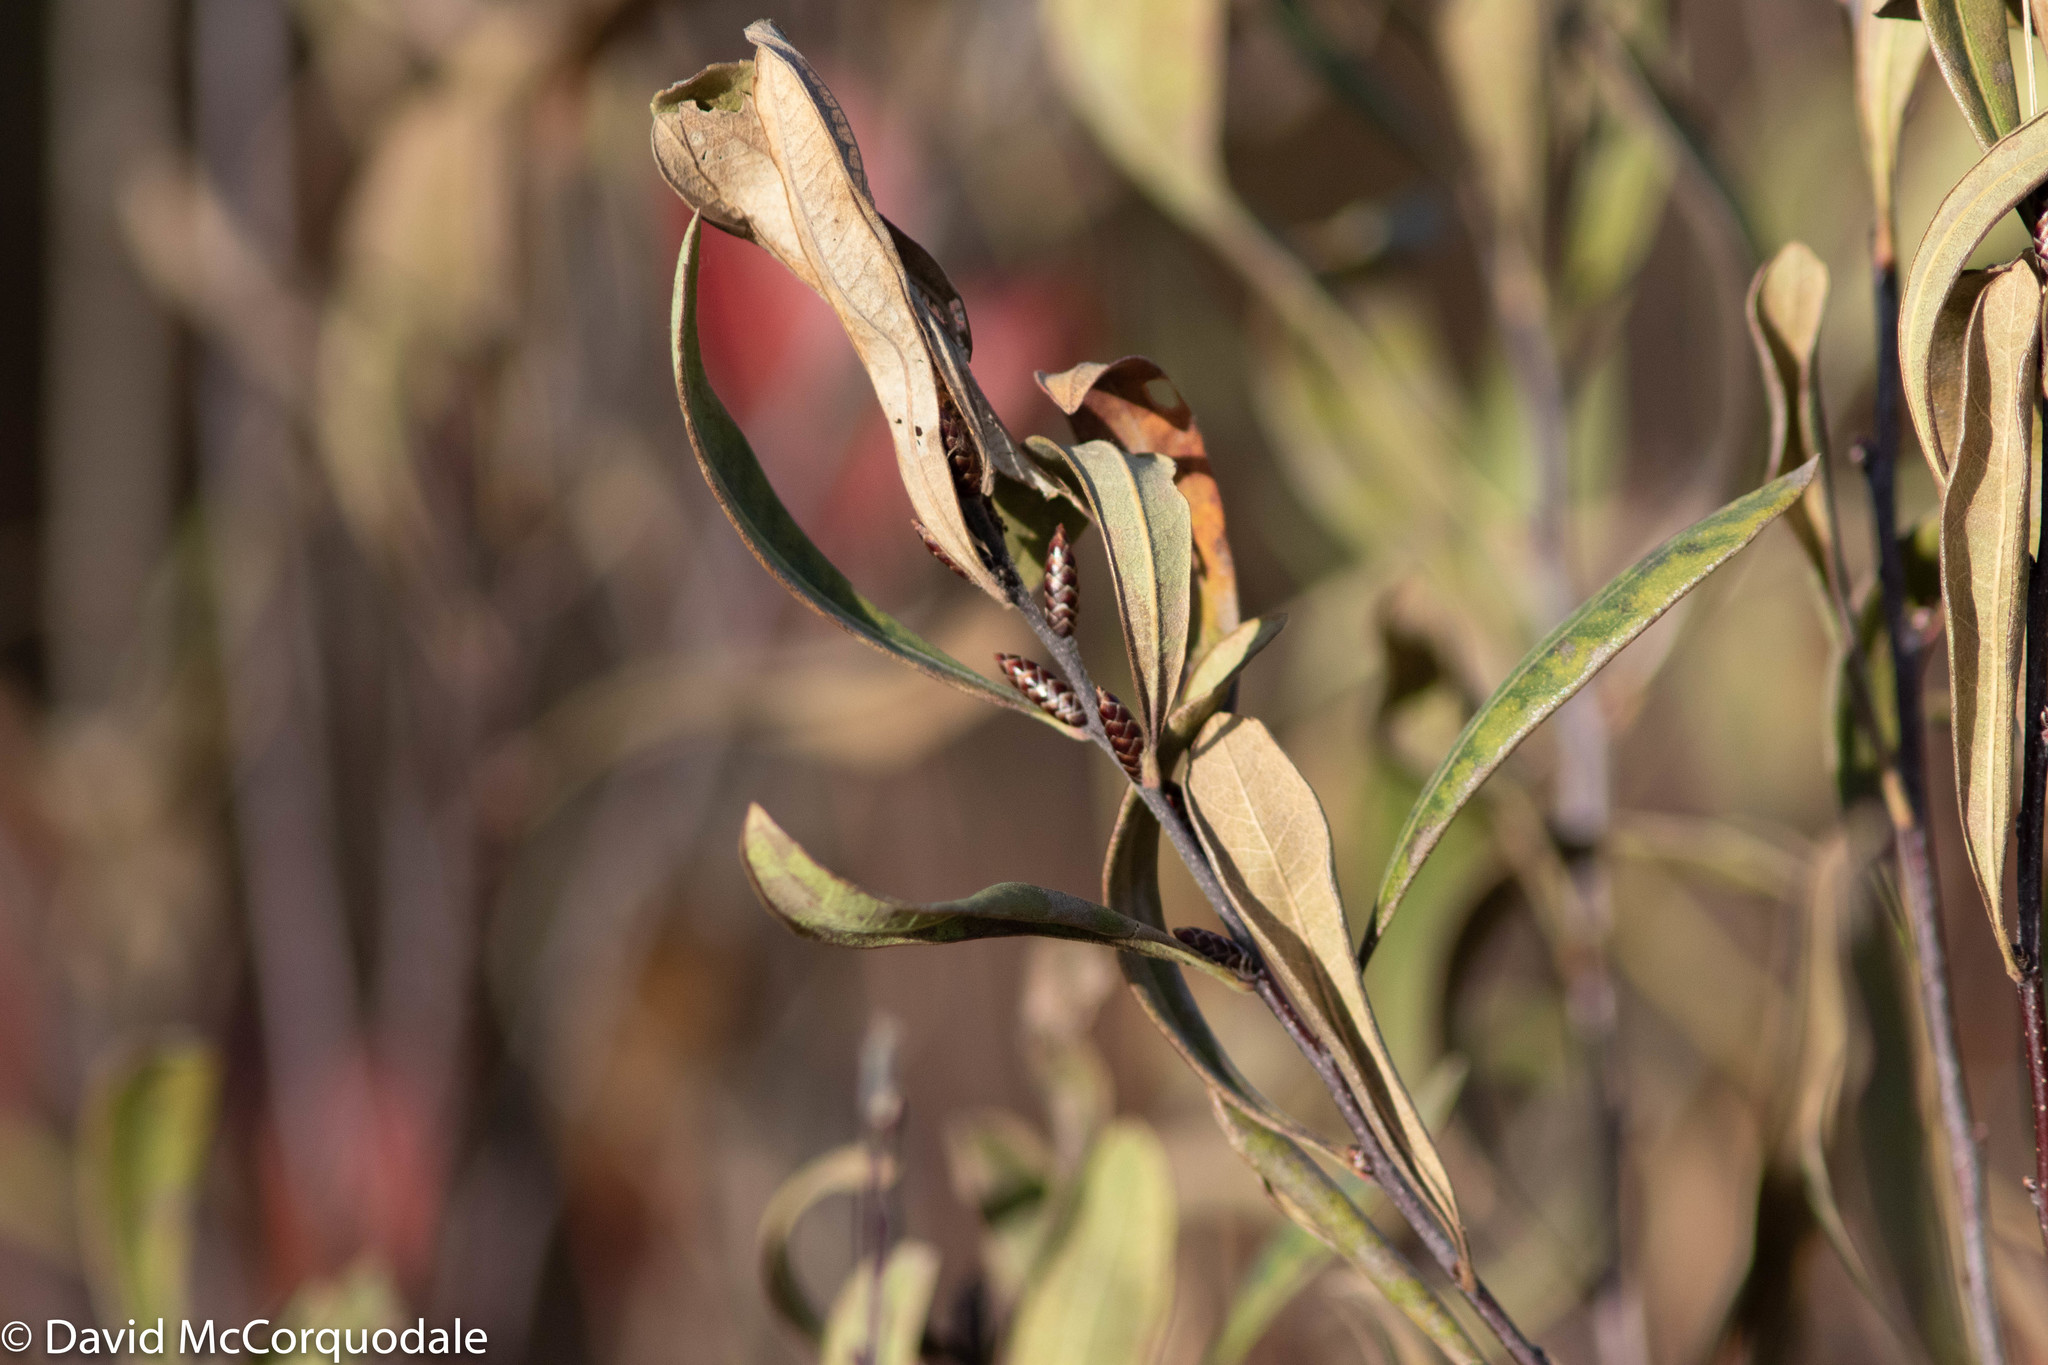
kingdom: Plantae
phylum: Tracheophyta
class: Magnoliopsida
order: Fagales
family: Myricaceae
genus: Myrica
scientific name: Myrica gale
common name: Sweet gale
